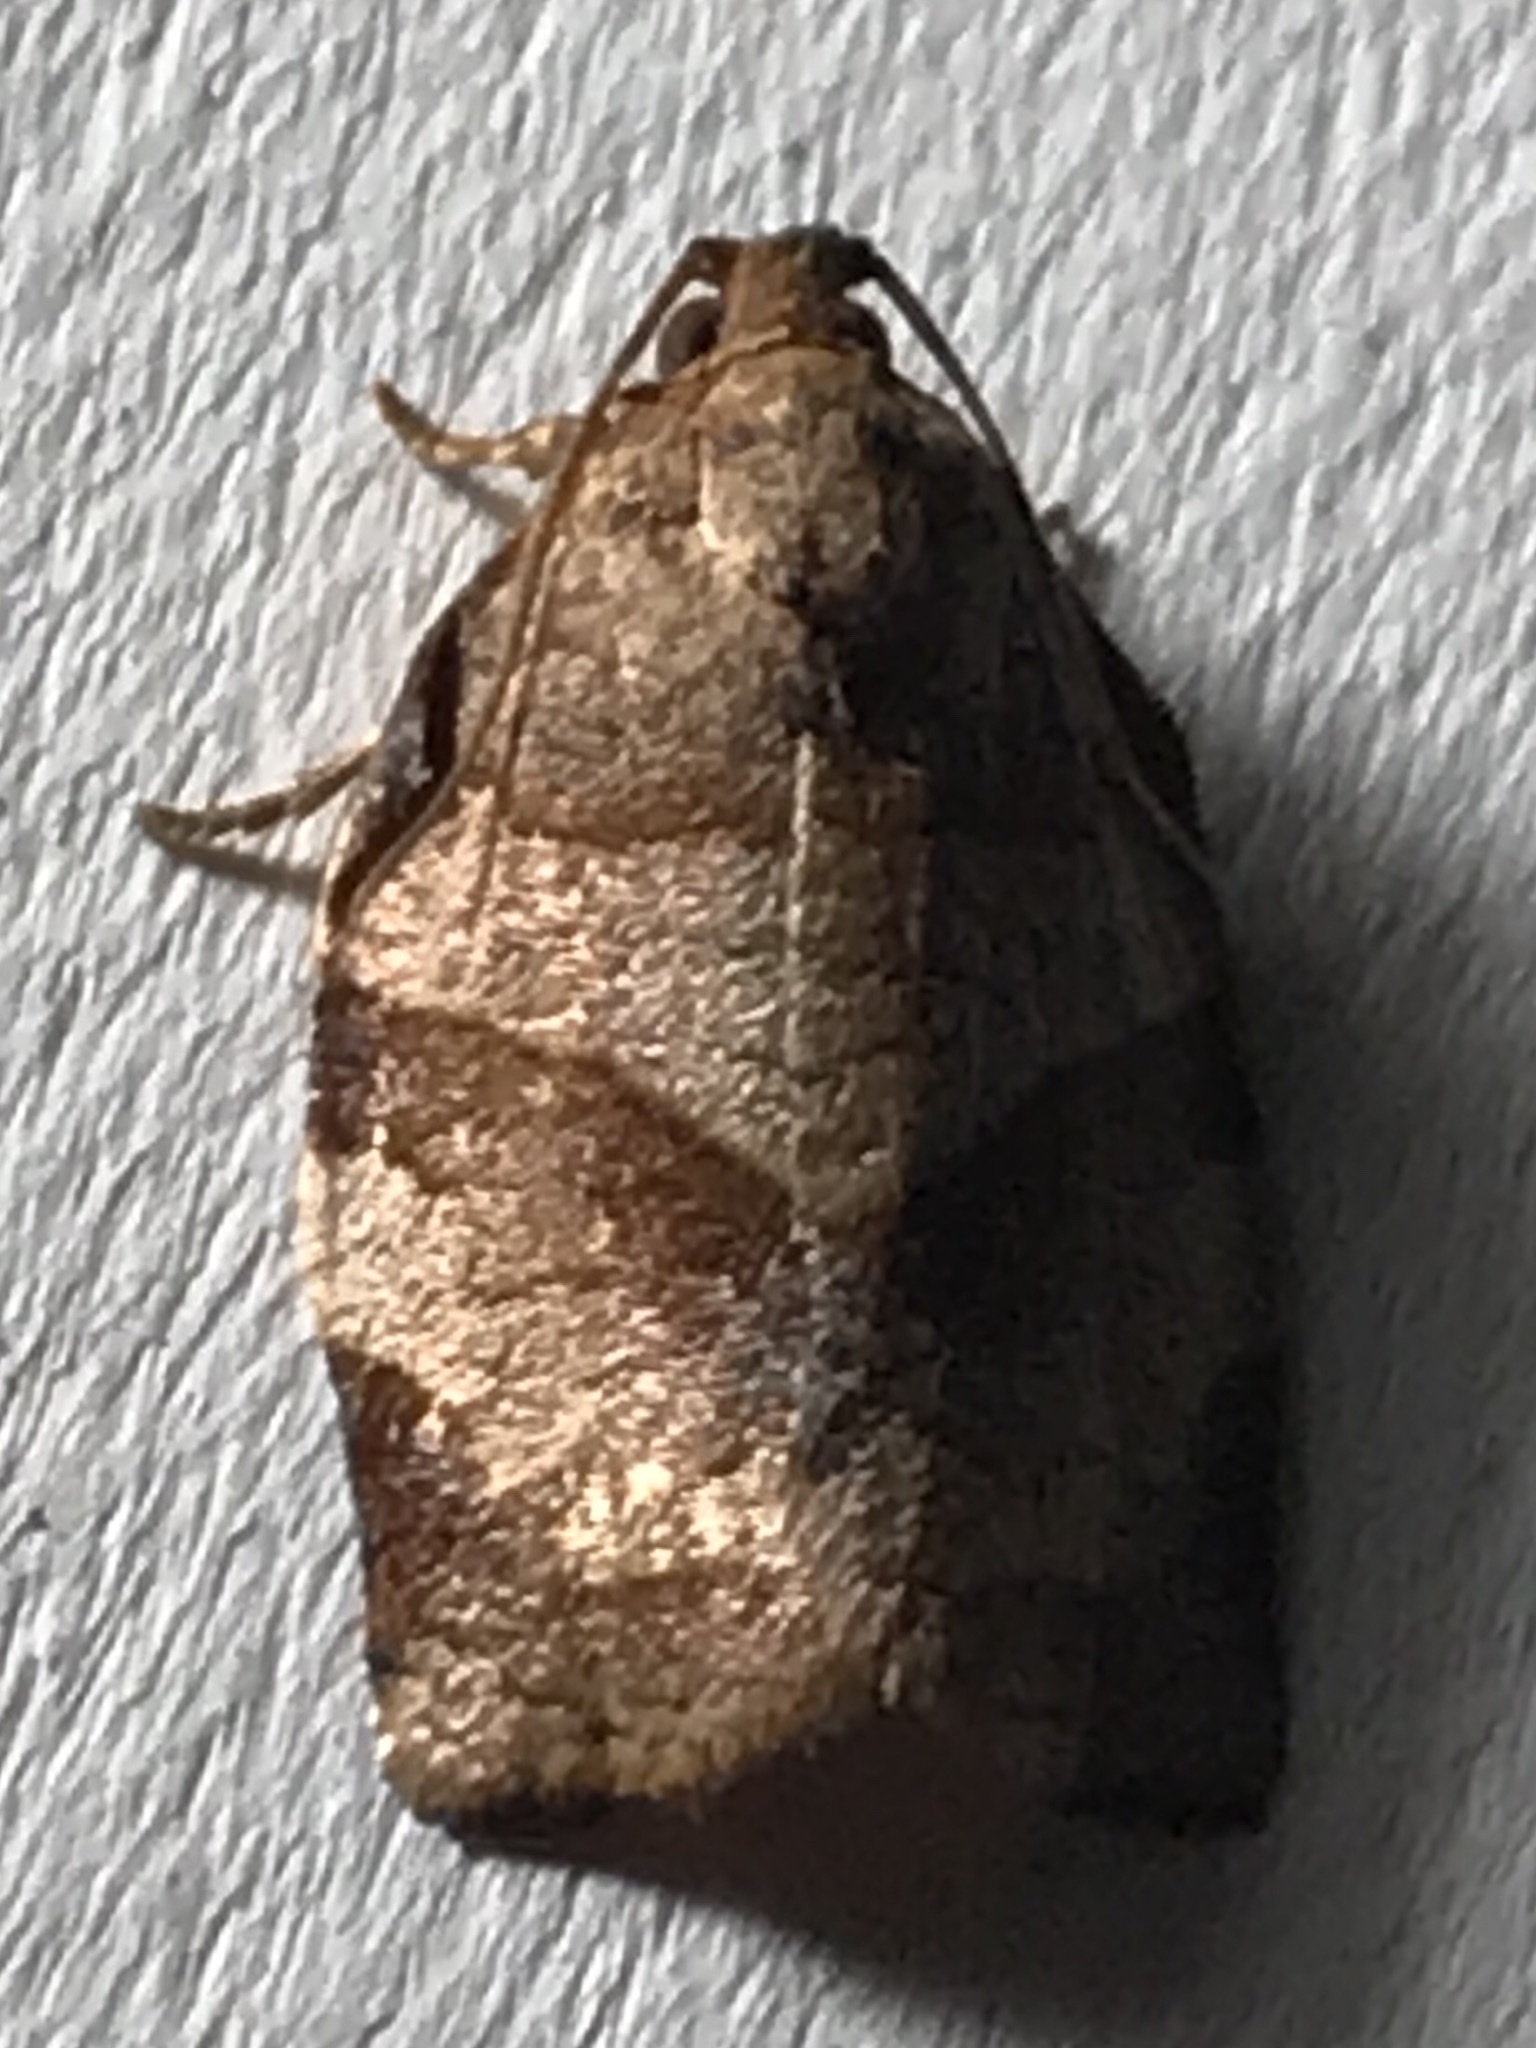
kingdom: Animalia
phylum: Arthropoda
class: Insecta
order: Lepidoptera
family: Tortricidae
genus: Choristoneura
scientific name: Choristoneura rosaceana
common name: Oblique-banded leafroller moth
